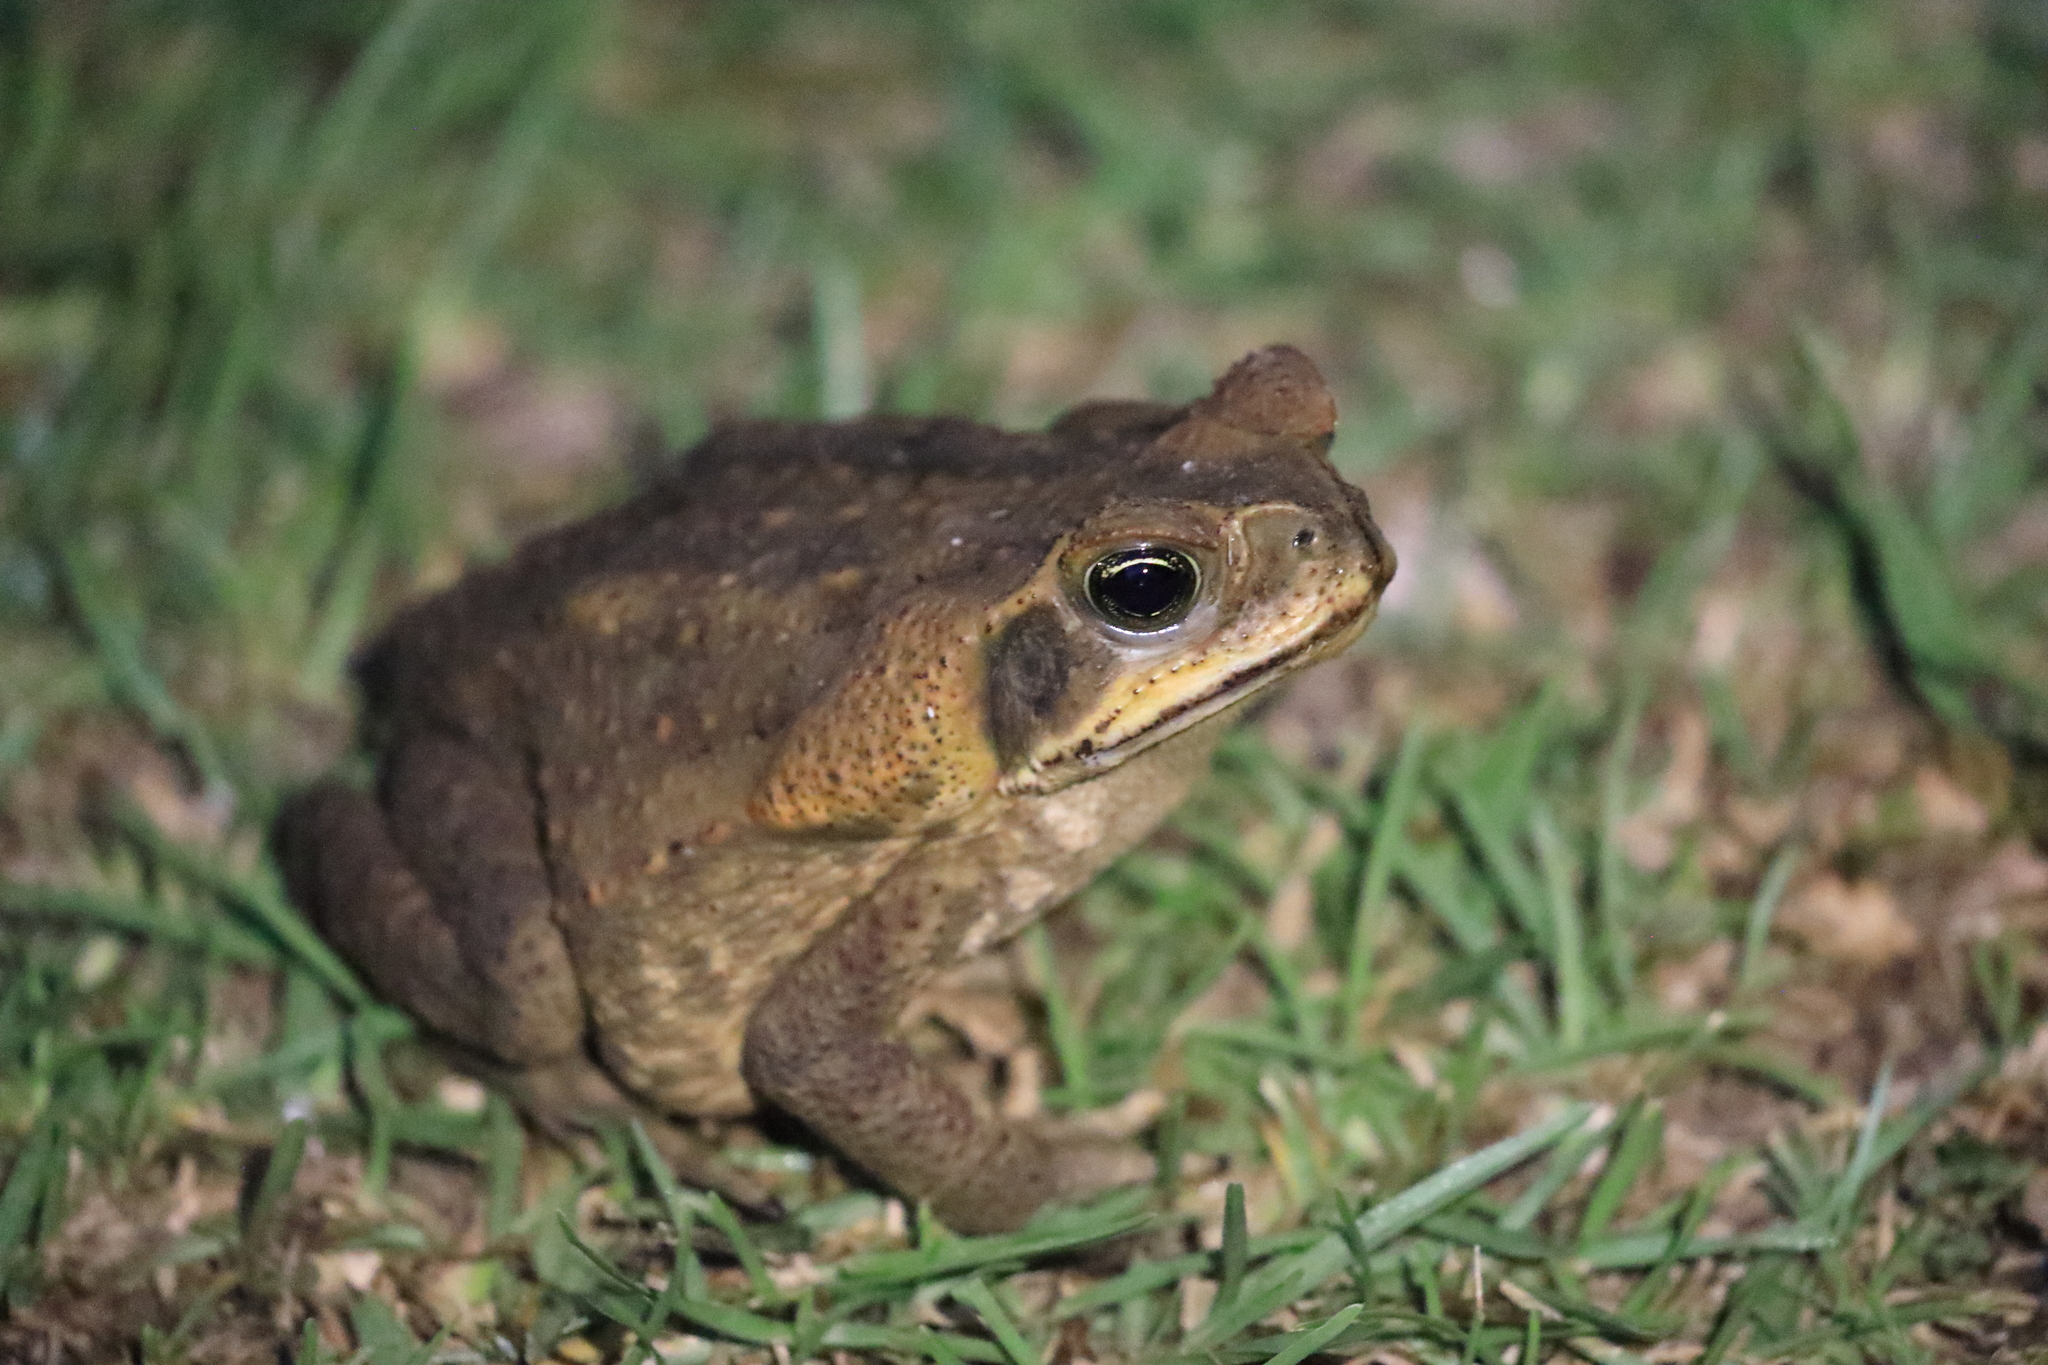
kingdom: Animalia
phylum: Chordata
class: Amphibia
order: Anura
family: Bufonidae
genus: Rhinella
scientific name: Rhinella horribilis
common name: Mesoamerican cane toad
